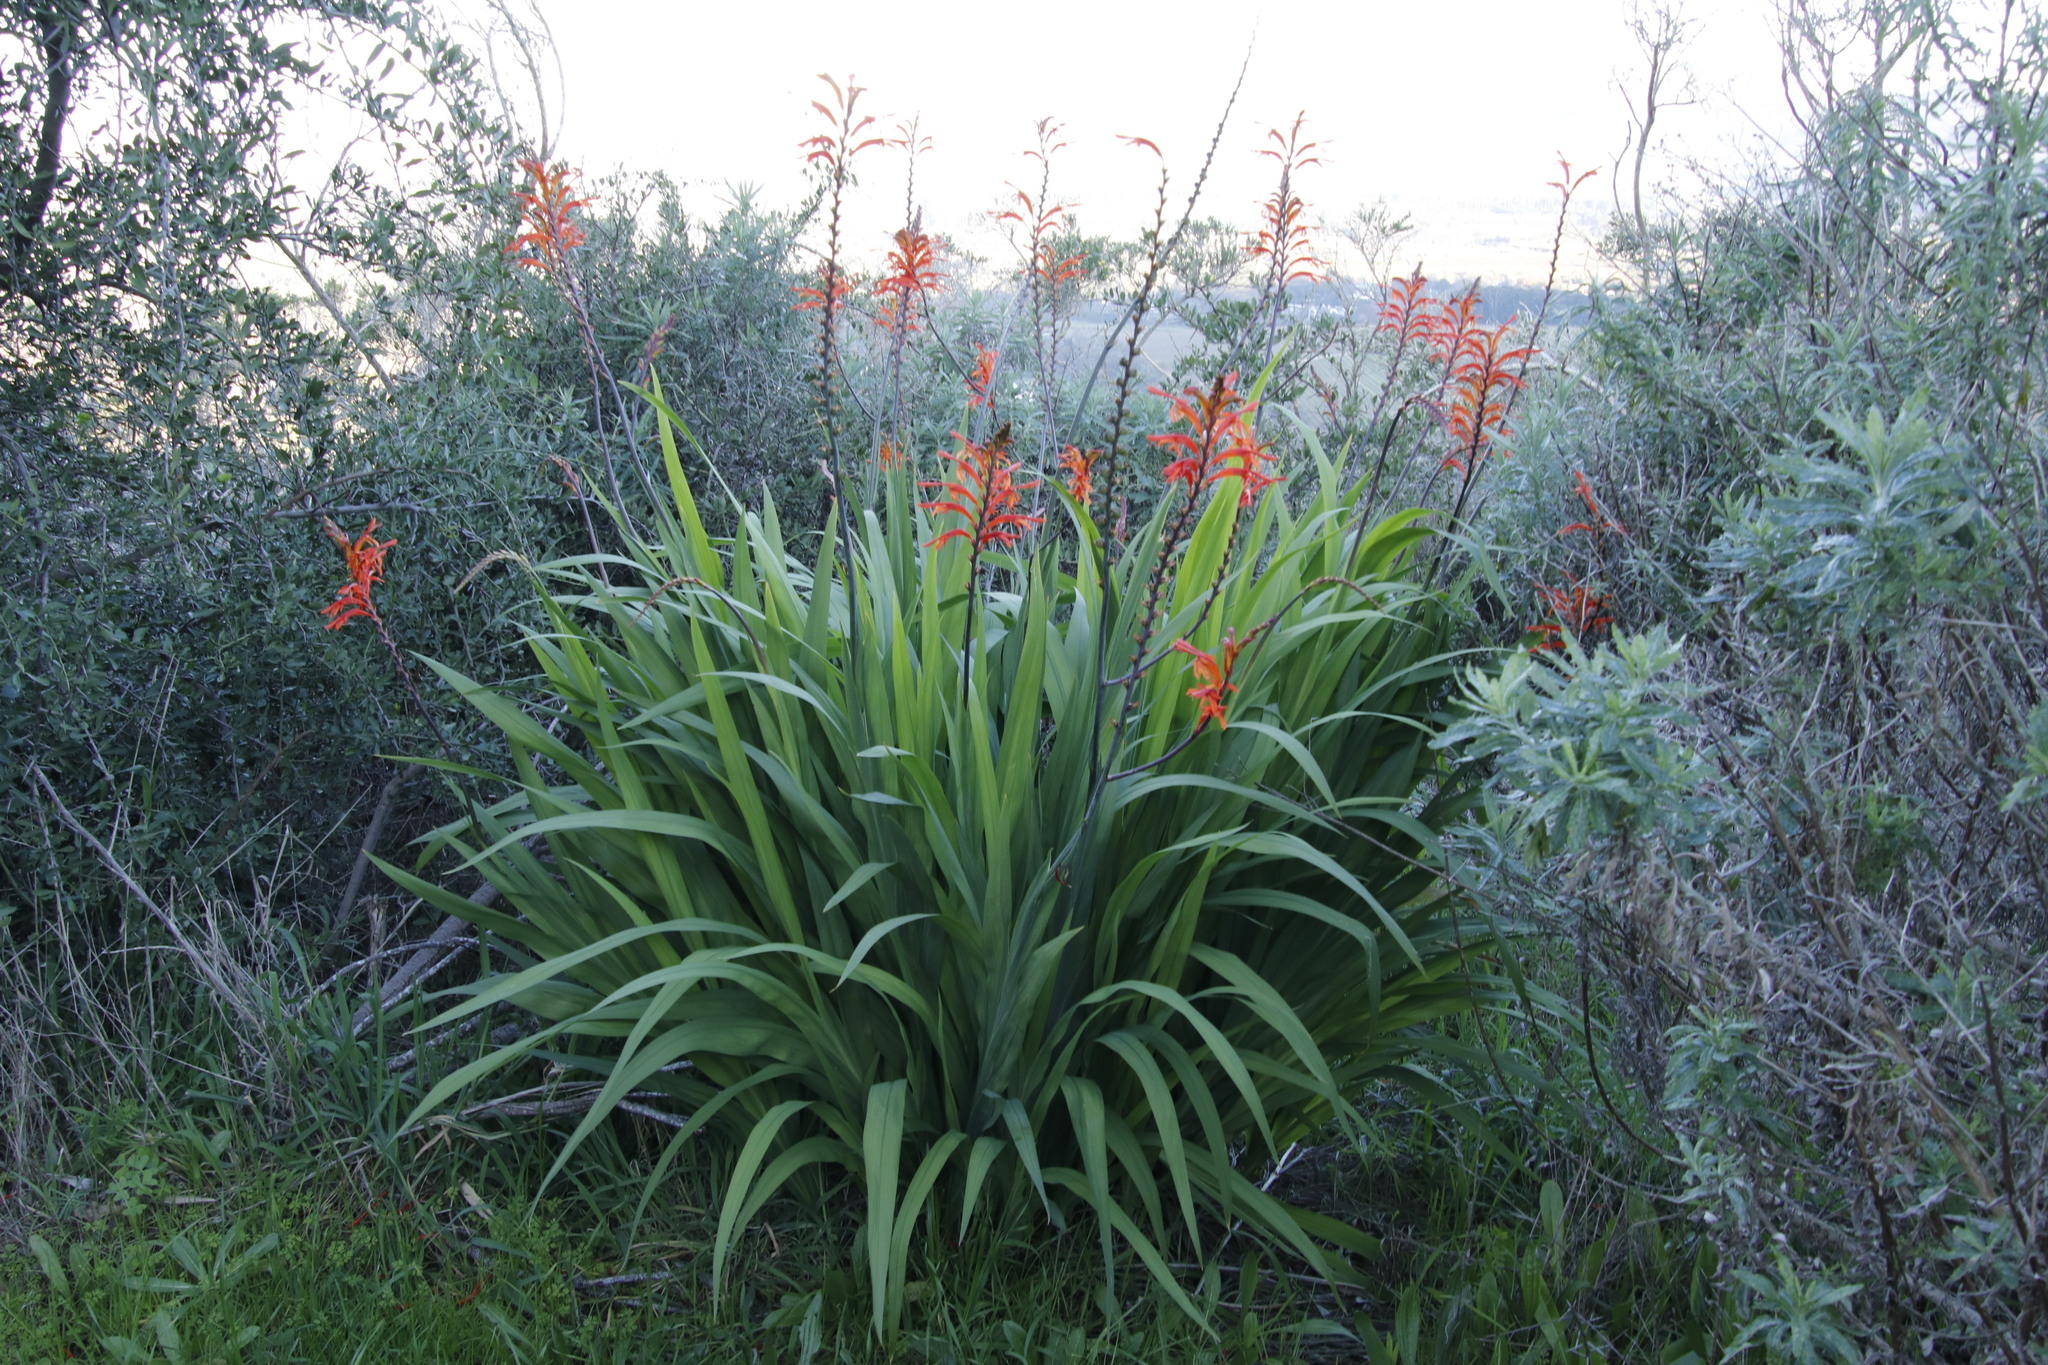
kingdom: Plantae
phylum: Tracheophyta
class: Liliopsida
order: Asparagales
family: Iridaceae
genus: Chasmanthe
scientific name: Chasmanthe floribunda
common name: African cornflag
